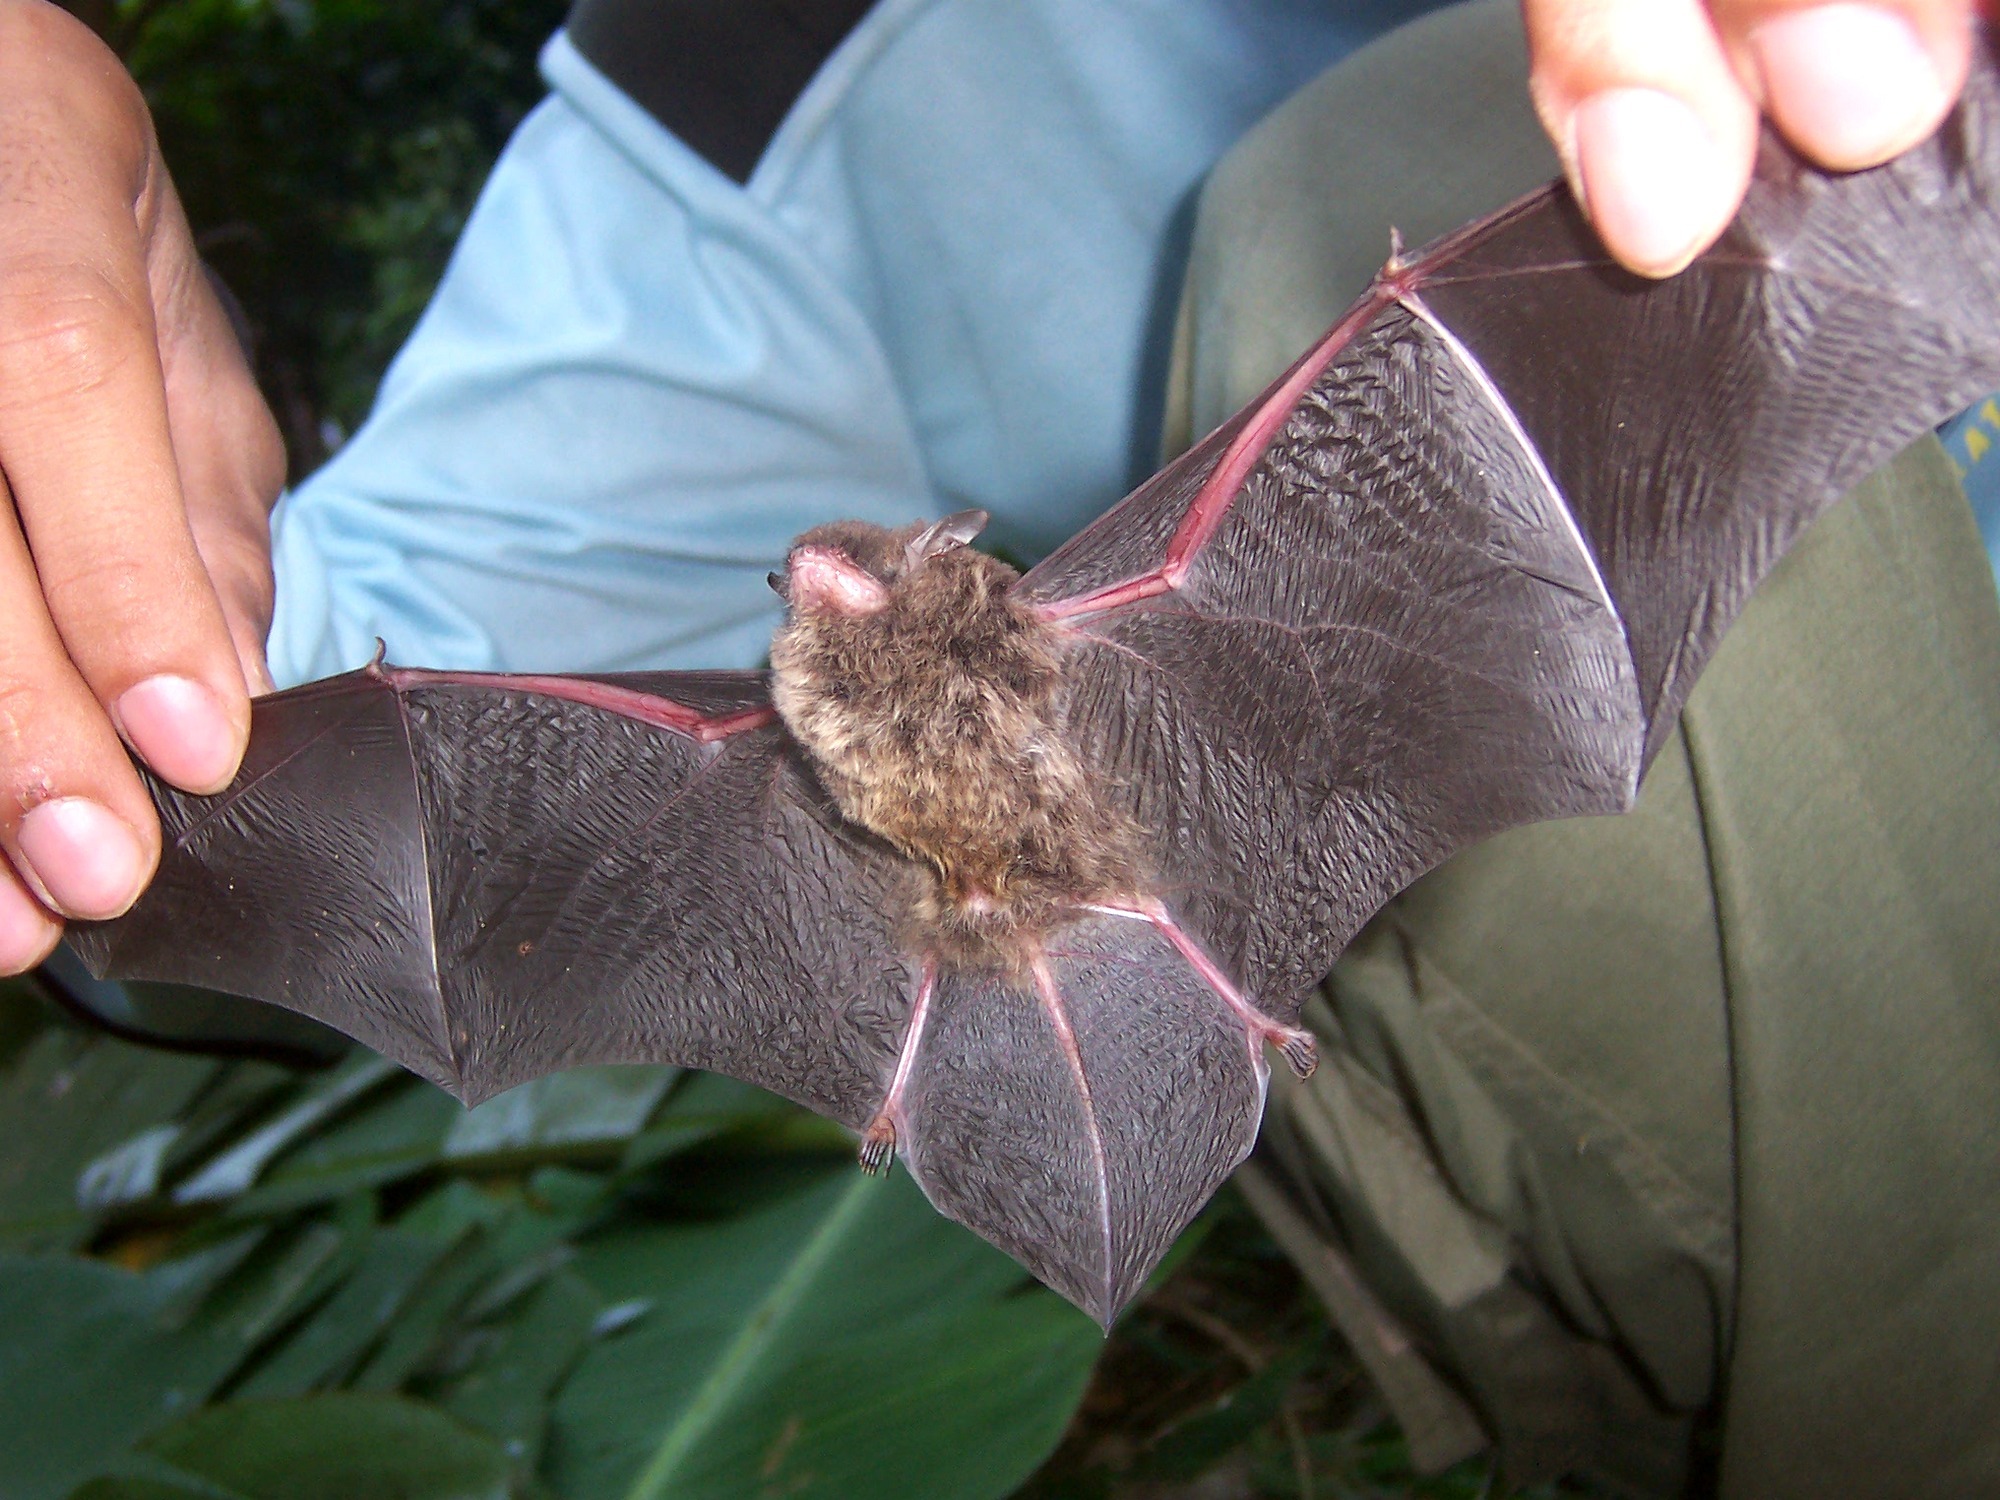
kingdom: Animalia
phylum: Chordata
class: Mammalia
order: Chiroptera
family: Vespertilionidae
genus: Myotis
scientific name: Myotis muricola
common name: Nepalese whiskered myotis
